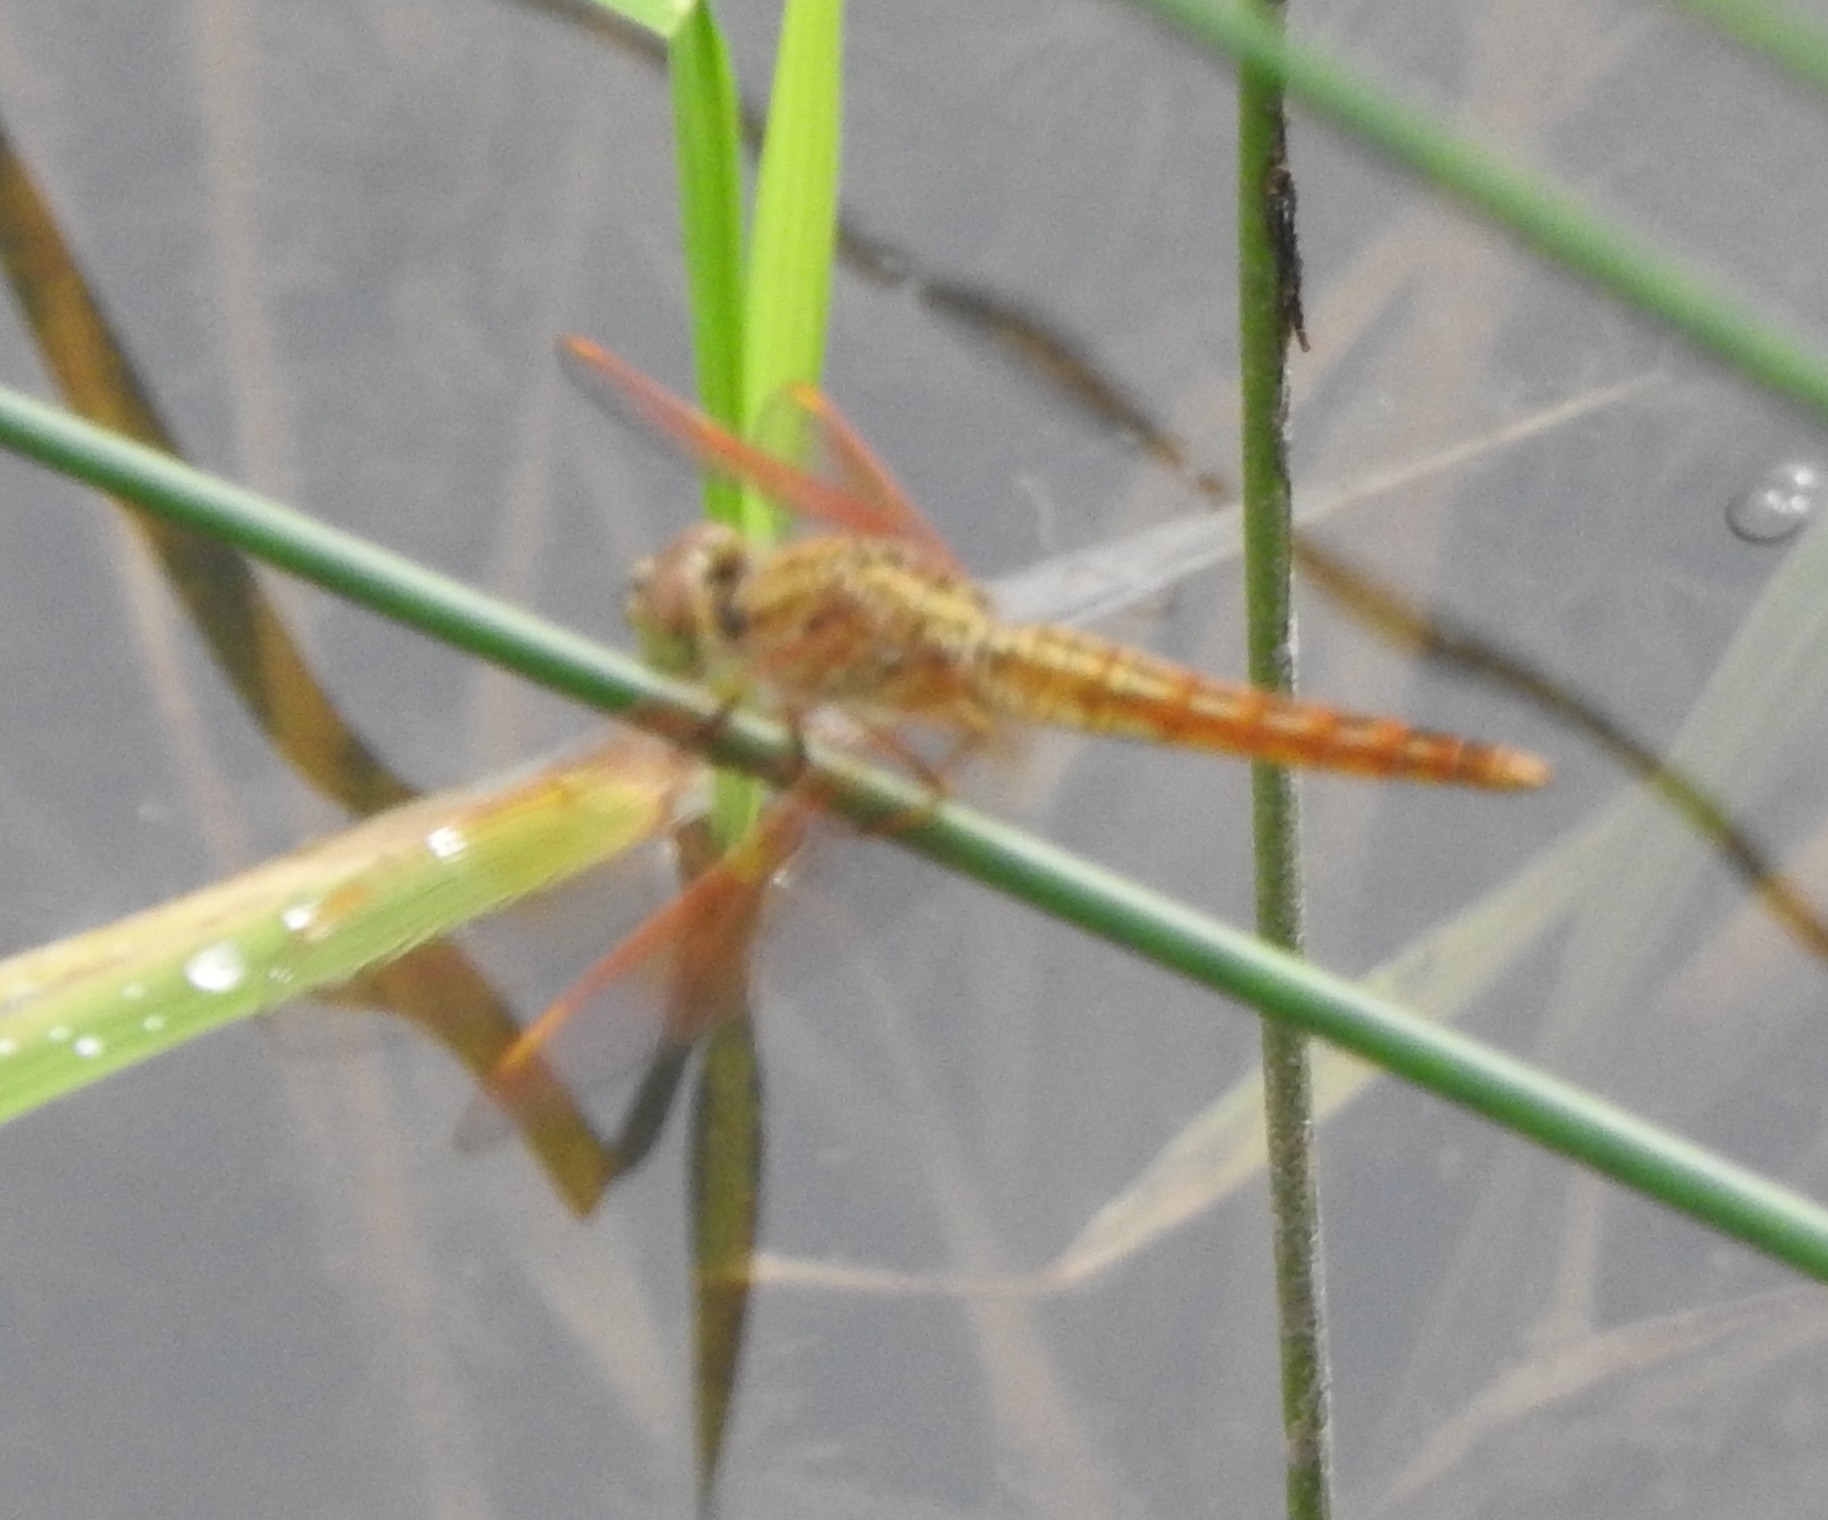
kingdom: Animalia
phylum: Arthropoda
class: Insecta
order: Odonata
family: Libellulidae
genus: Brachythemis
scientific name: Brachythemis contaminata
